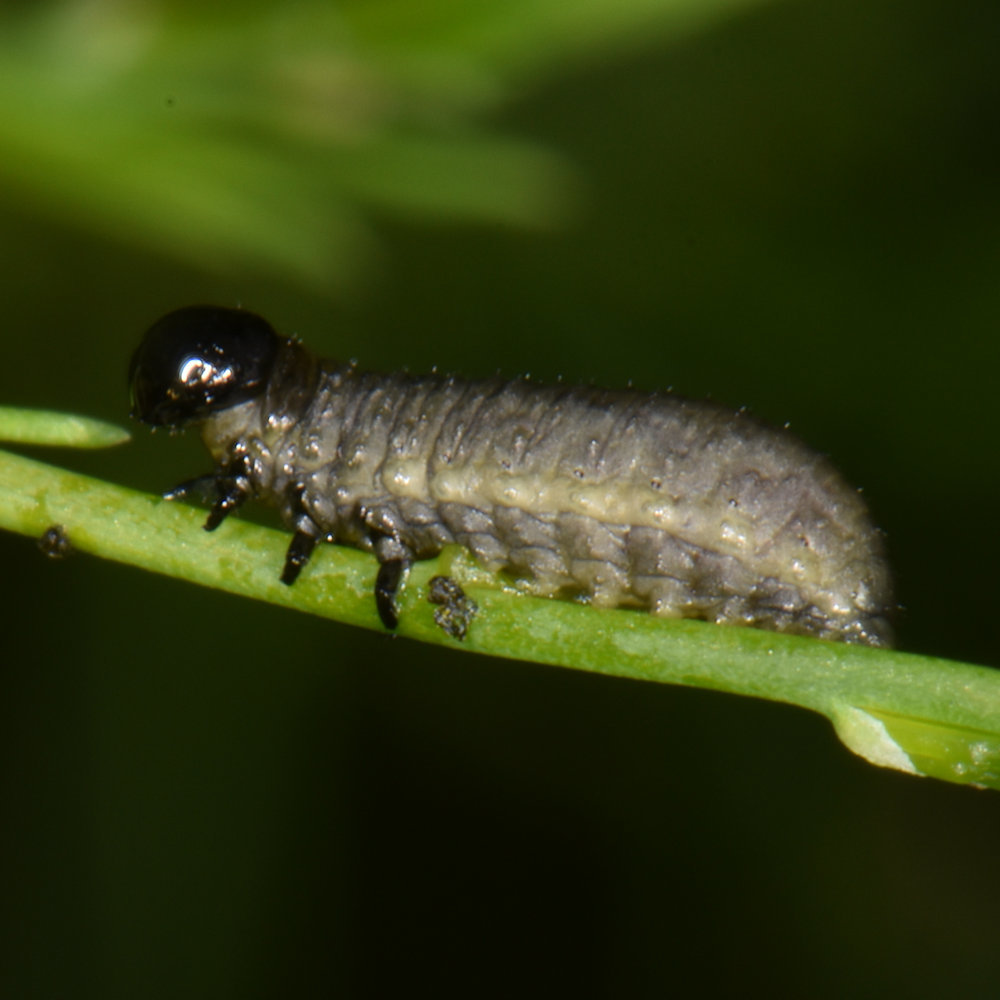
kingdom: Animalia
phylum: Arthropoda
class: Insecta
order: Coleoptera
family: Chrysomelidae
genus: Crioceris
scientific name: Crioceris asparagi
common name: Asparagus beetle
